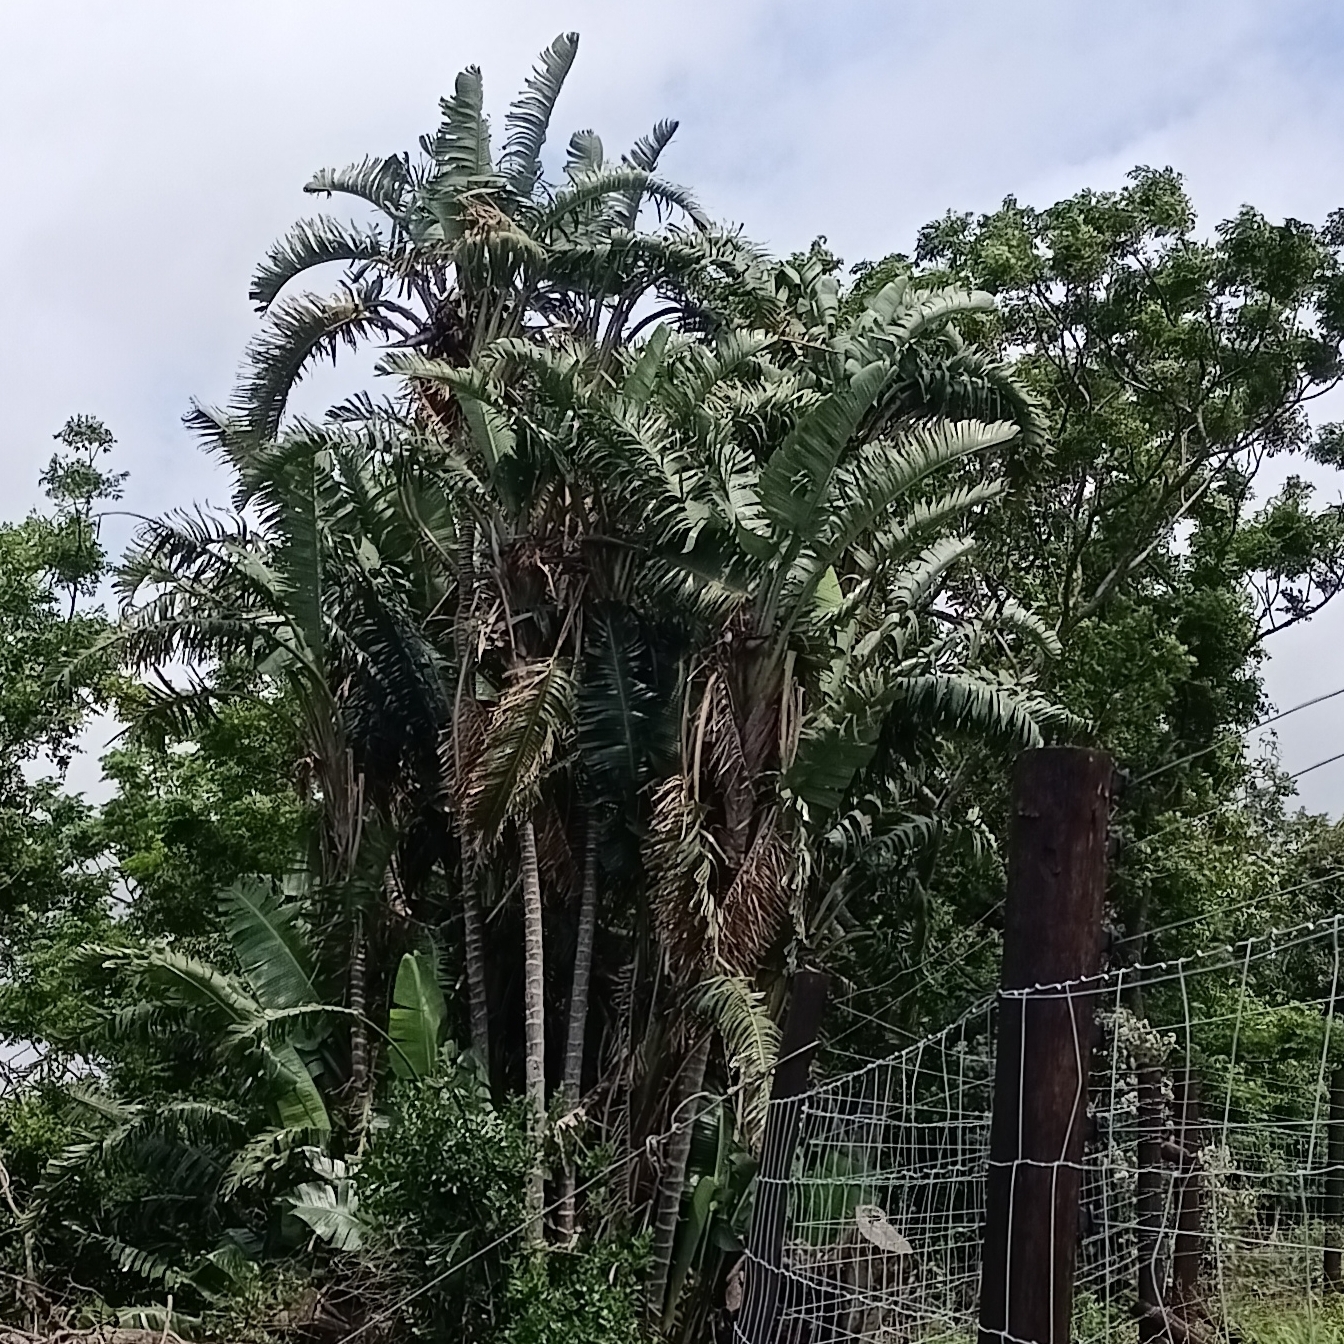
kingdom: Plantae
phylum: Tracheophyta
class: Liliopsida
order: Zingiberales
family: Strelitziaceae
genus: Strelitzia
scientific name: Strelitzia nicolai
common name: Bird-of-paradise tree
